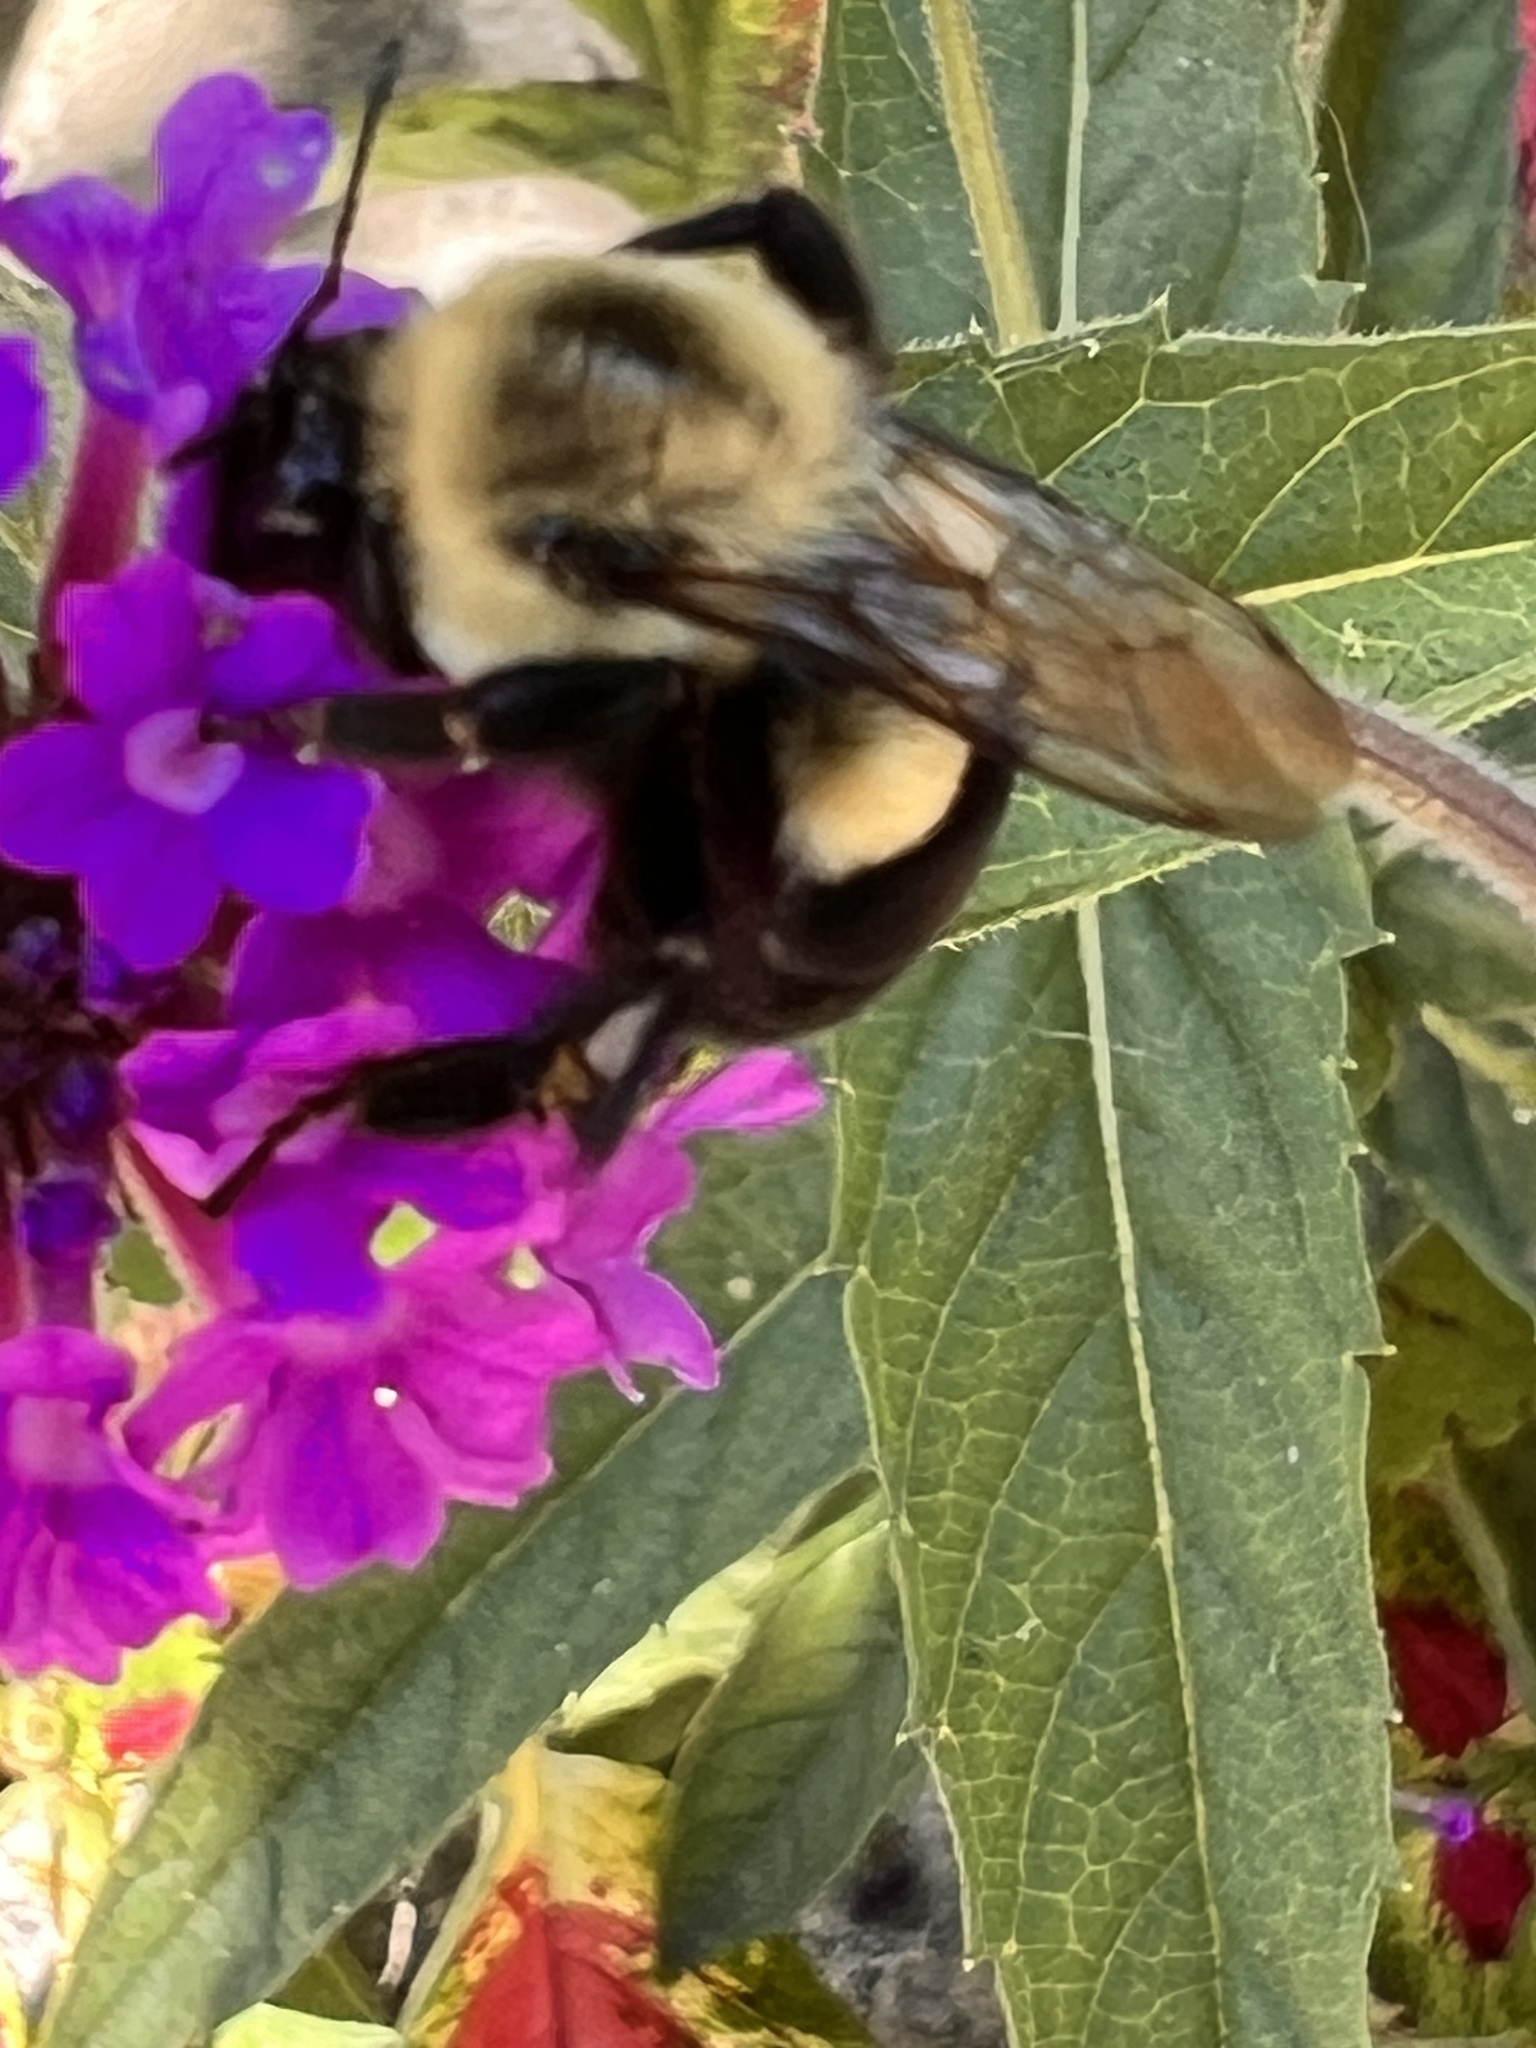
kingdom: Animalia
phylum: Arthropoda
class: Insecta
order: Hymenoptera
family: Apidae
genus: Bombus
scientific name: Bombus impatiens
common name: Common eastern bumble bee
